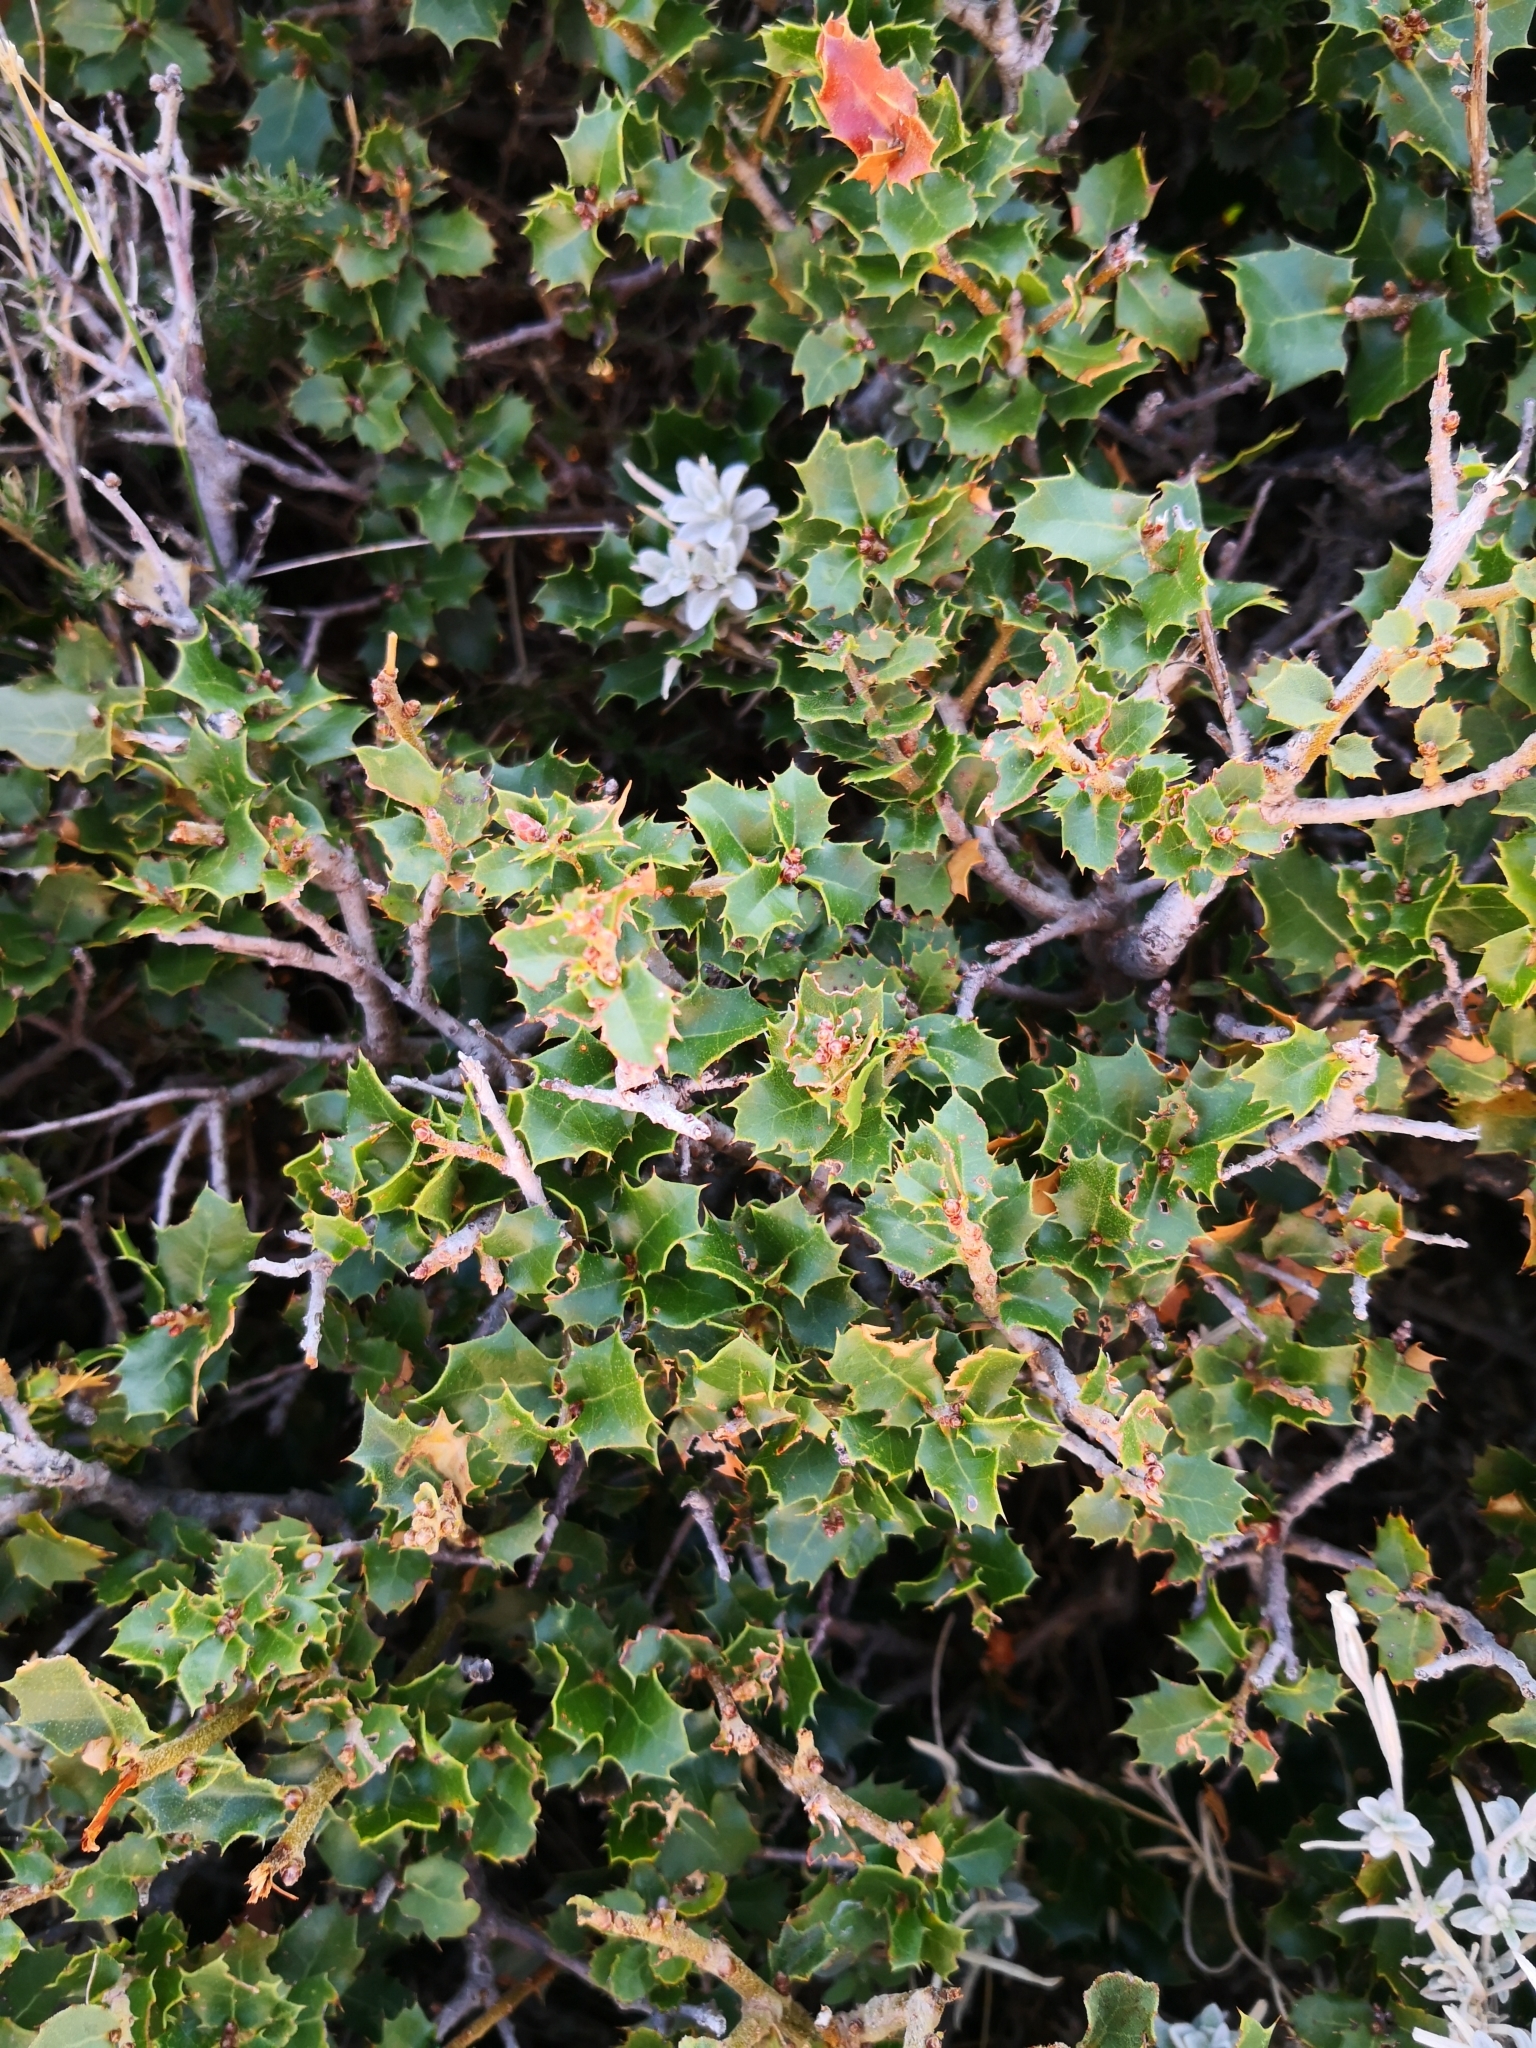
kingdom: Plantae
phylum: Tracheophyta
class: Magnoliopsida
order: Fagales
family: Fagaceae
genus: Quercus
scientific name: Quercus coccifera
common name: Kermes oak
